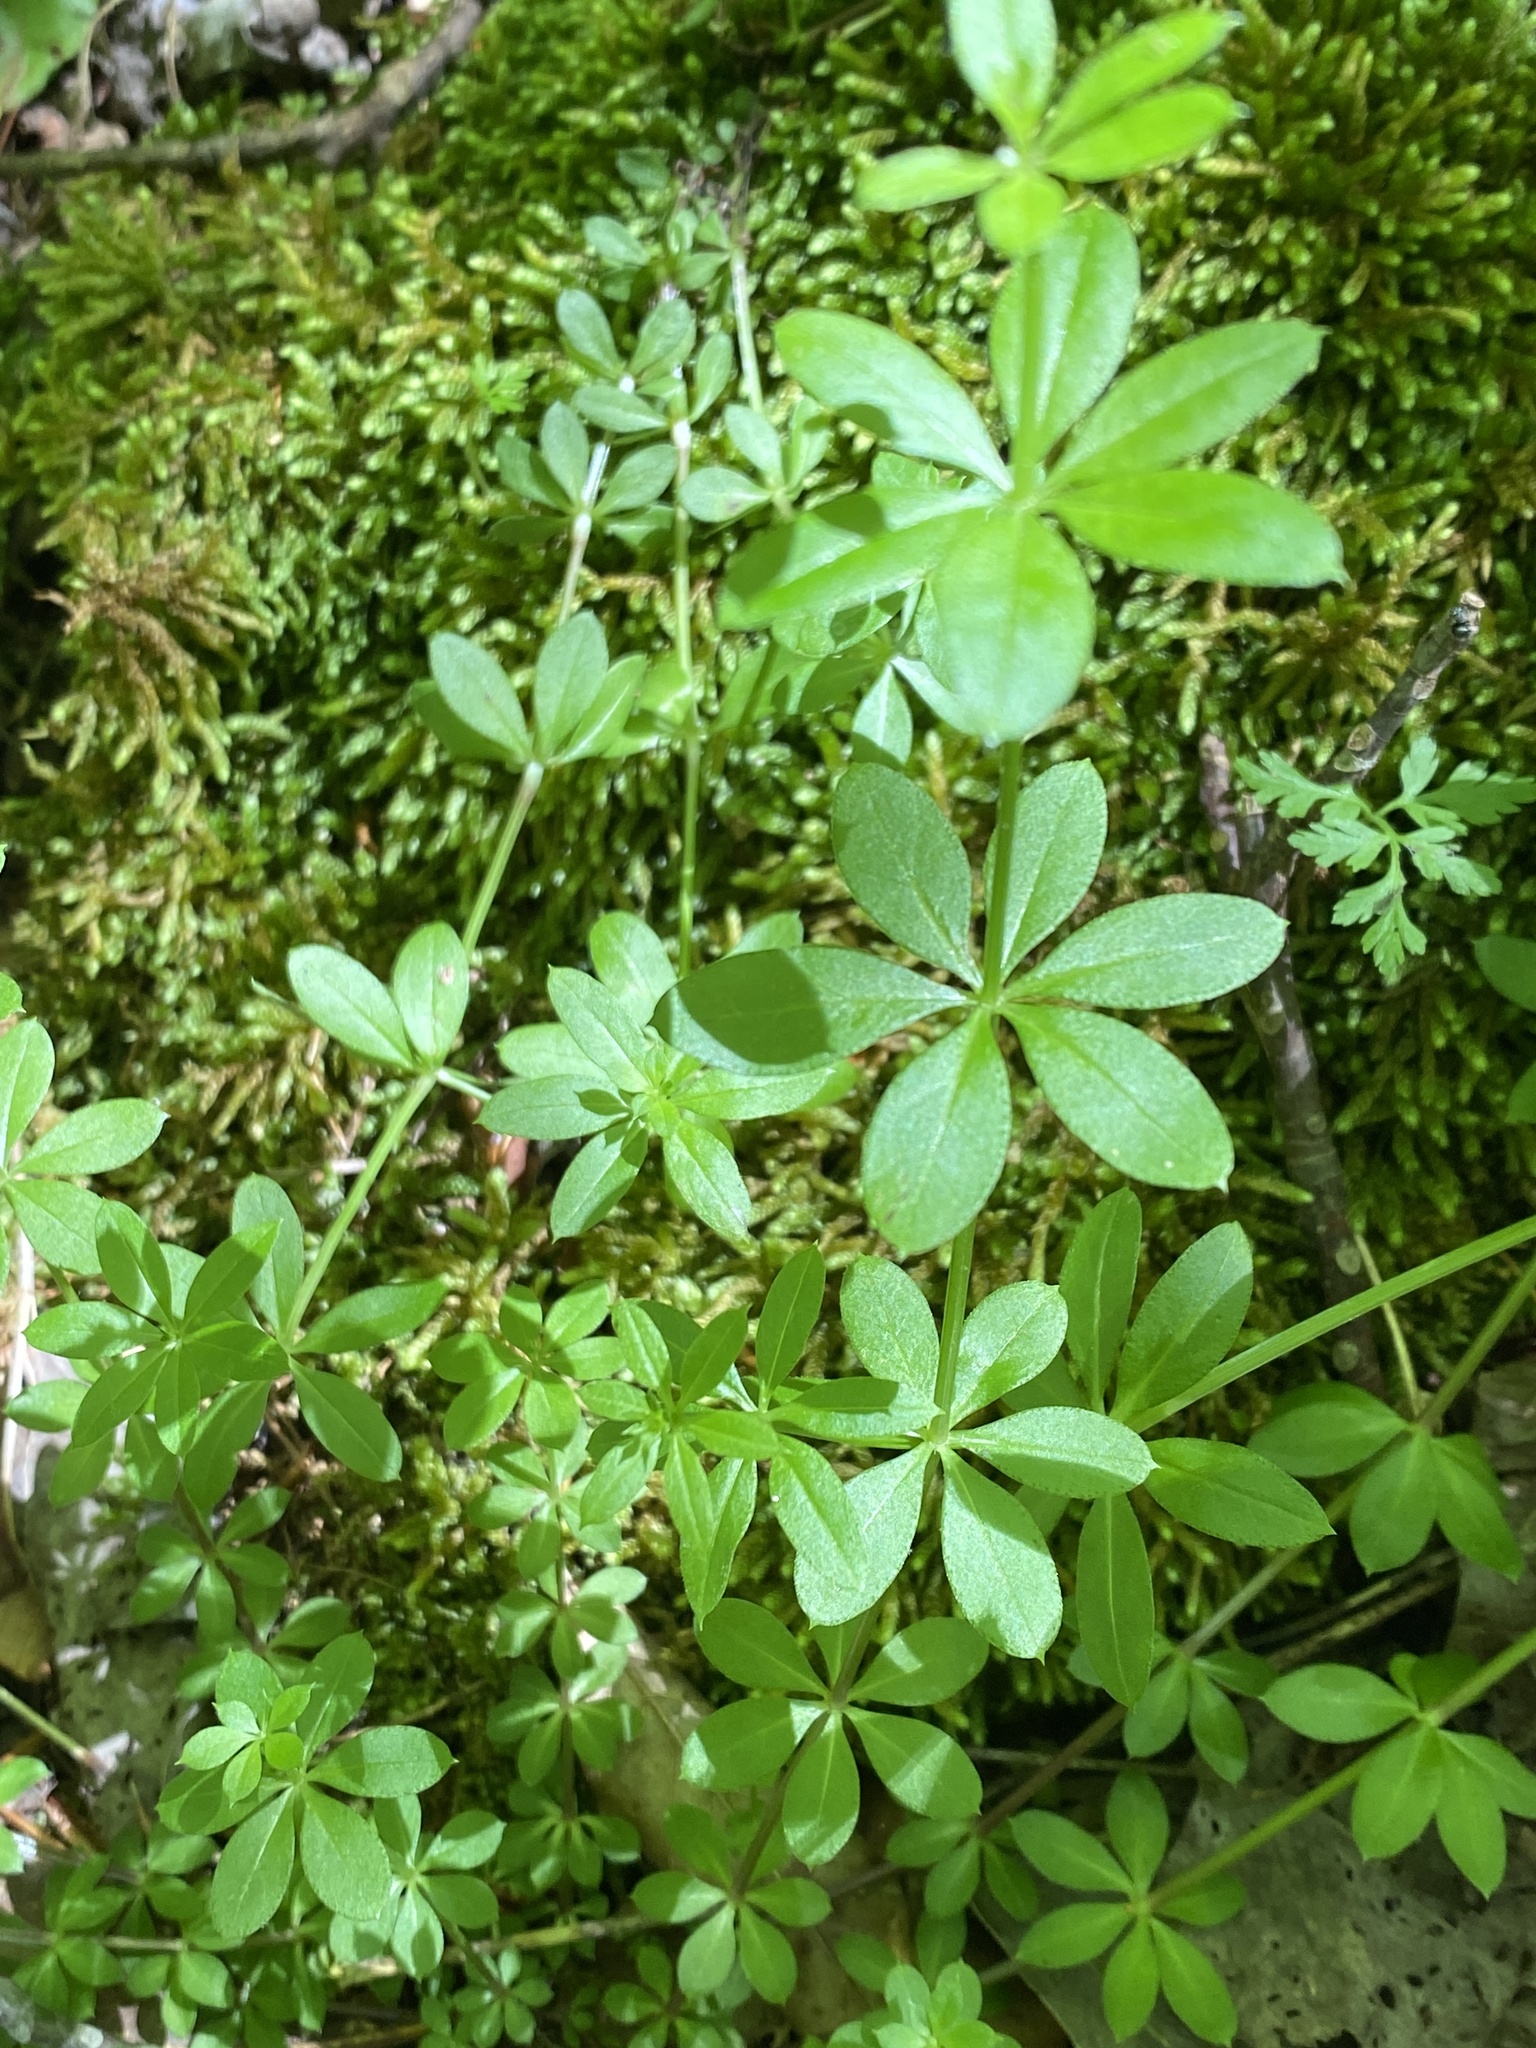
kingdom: Plantae
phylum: Tracheophyta
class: Magnoliopsida
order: Gentianales
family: Rubiaceae
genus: Galium
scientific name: Galium triflorum
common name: Fragrant bedstraw
